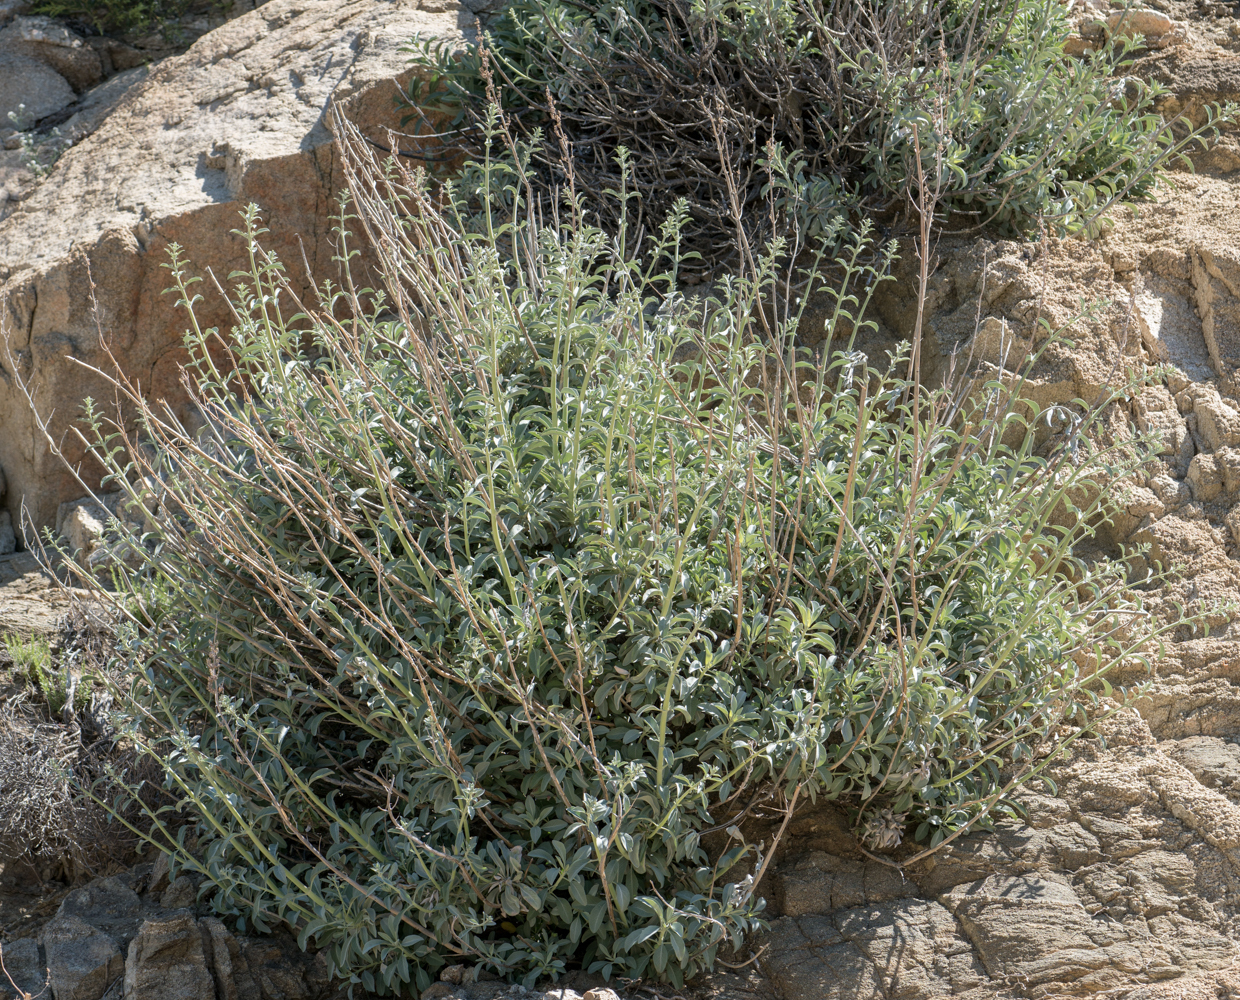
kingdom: Plantae
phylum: Tracheophyta
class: Magnoliopsida
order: Lamiales
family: Lamiaceae
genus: Salvia
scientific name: Salvia apiana
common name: White sage
